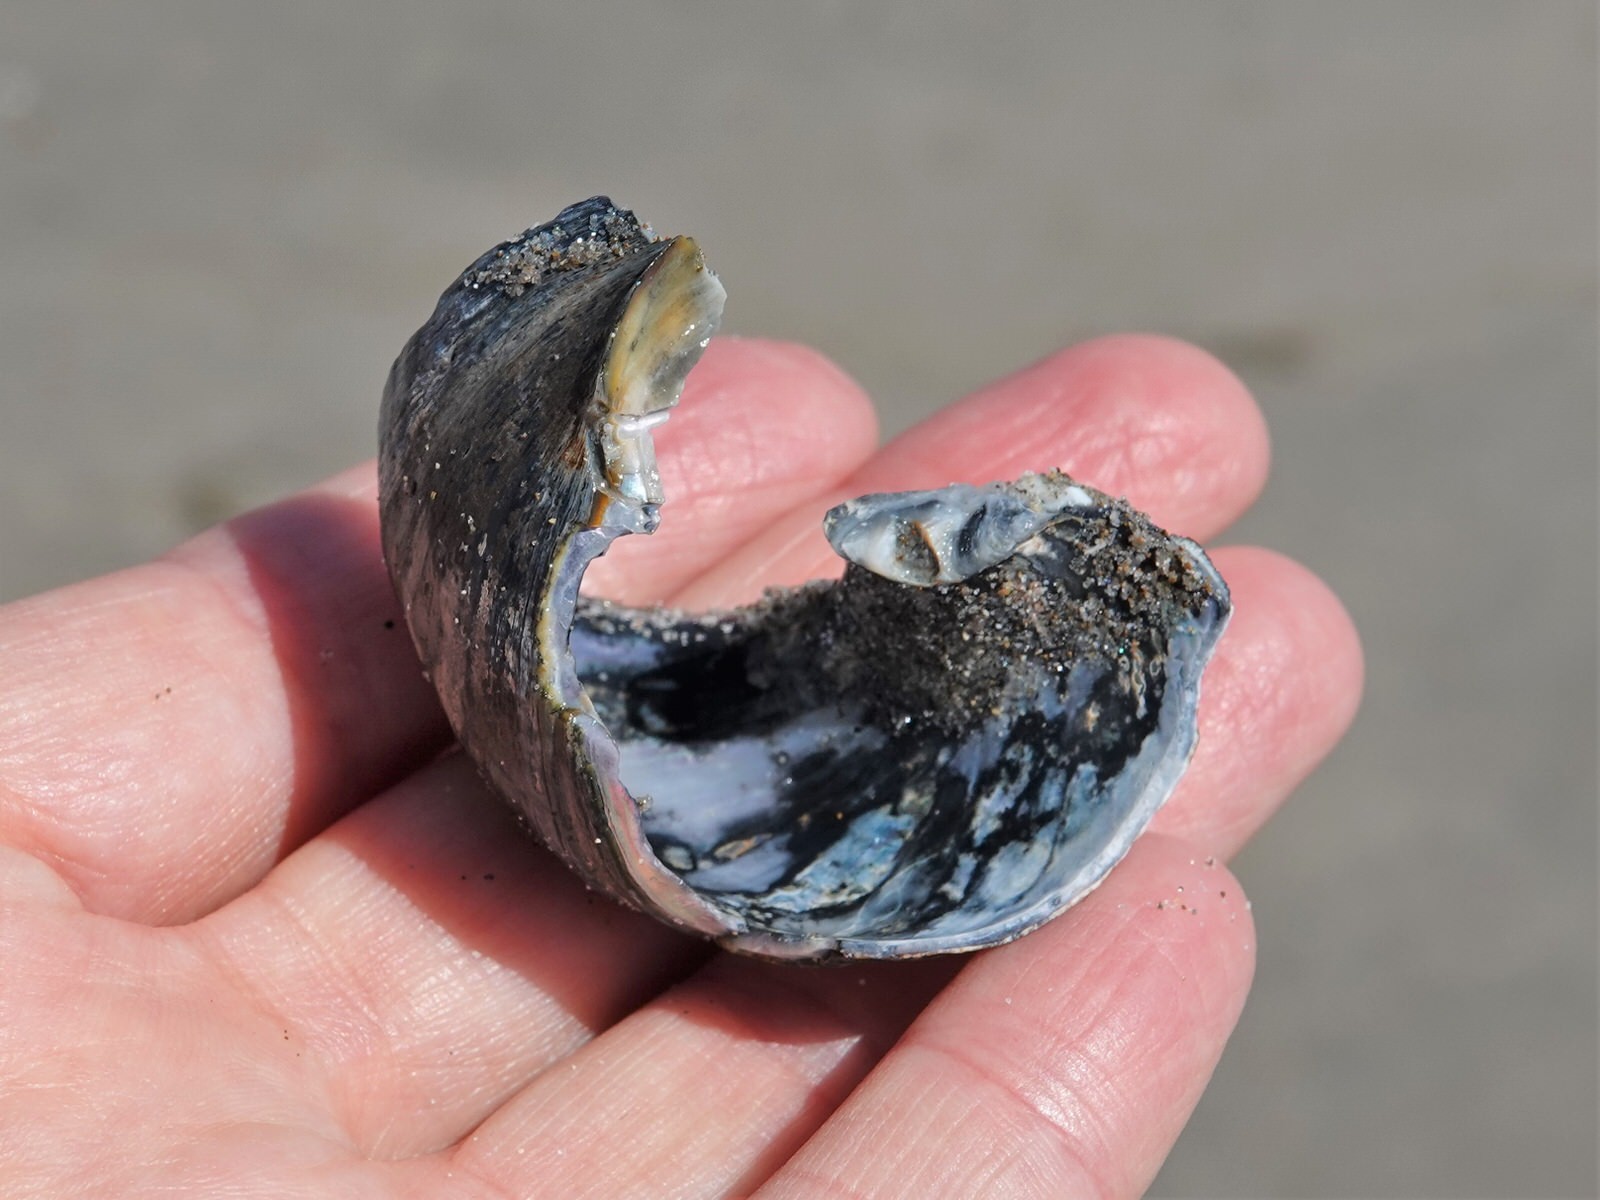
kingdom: Animalia
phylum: Mollusca
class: Gastropoda
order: Trochida
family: Turbinidae
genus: Lunella
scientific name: Lunella smaragda
